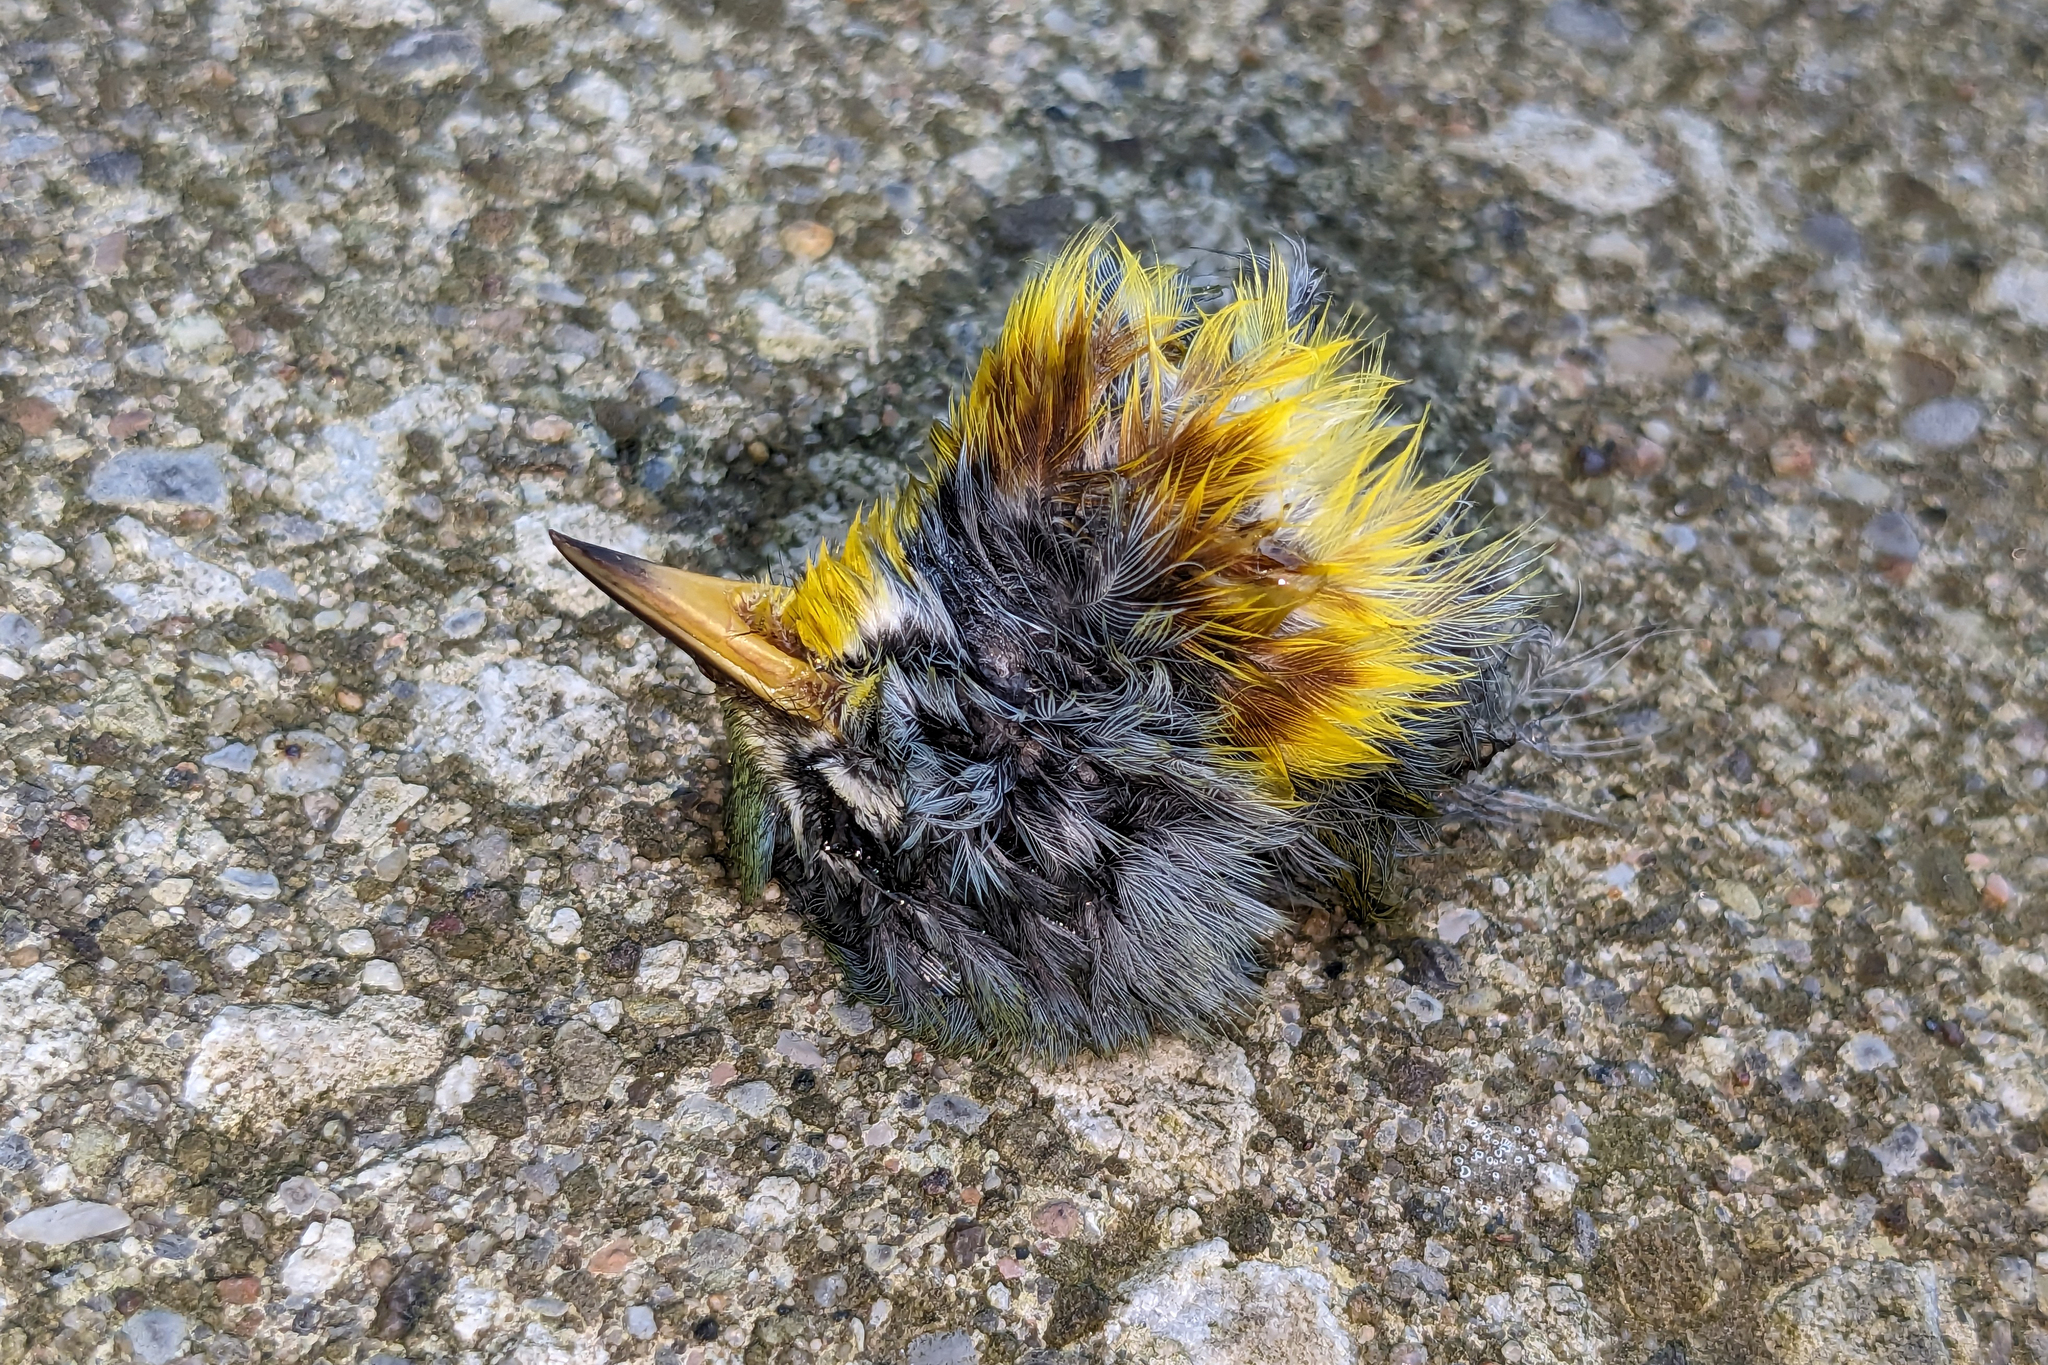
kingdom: Animalia
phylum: Chordata
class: Aves
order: Passeriformes
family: Parulidae
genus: Setophaga
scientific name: Setophaga americana
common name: Northern parula
